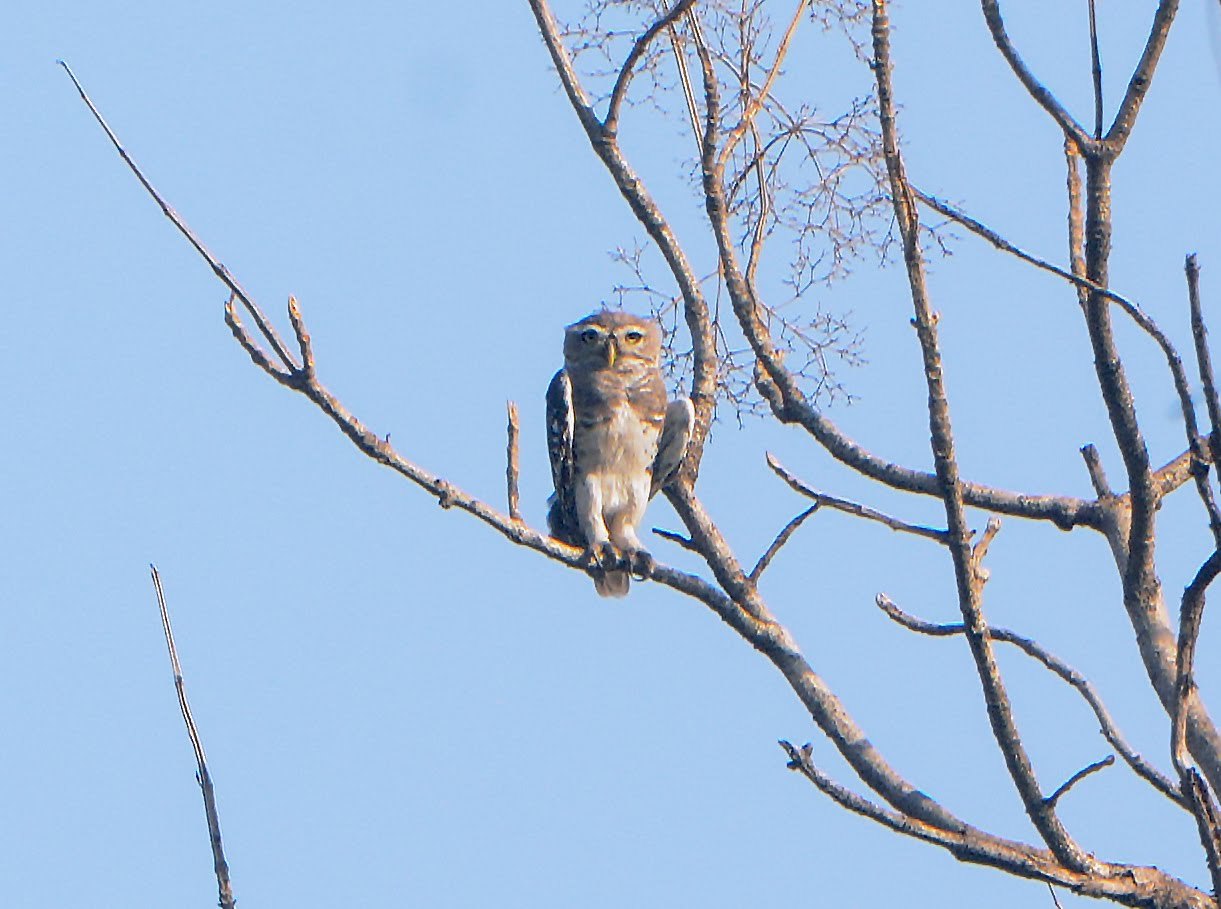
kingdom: Animalia
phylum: Chordata
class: Aves
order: Strigiformes
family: Strigidae
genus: Heteroglaux
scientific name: Heteroglaux blewitti
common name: Forest owlet
